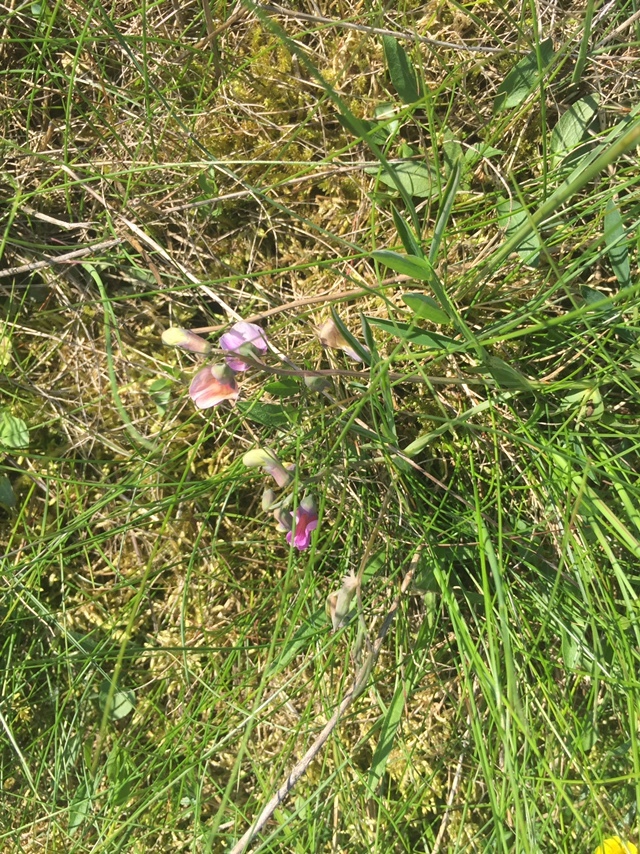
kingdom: Plantae
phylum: Tracheophyta
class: Magnoliopsida
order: Fabales
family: Fabaceae
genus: Lathyrus
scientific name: Lathyrus linifolius
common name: Bitter-vetch
